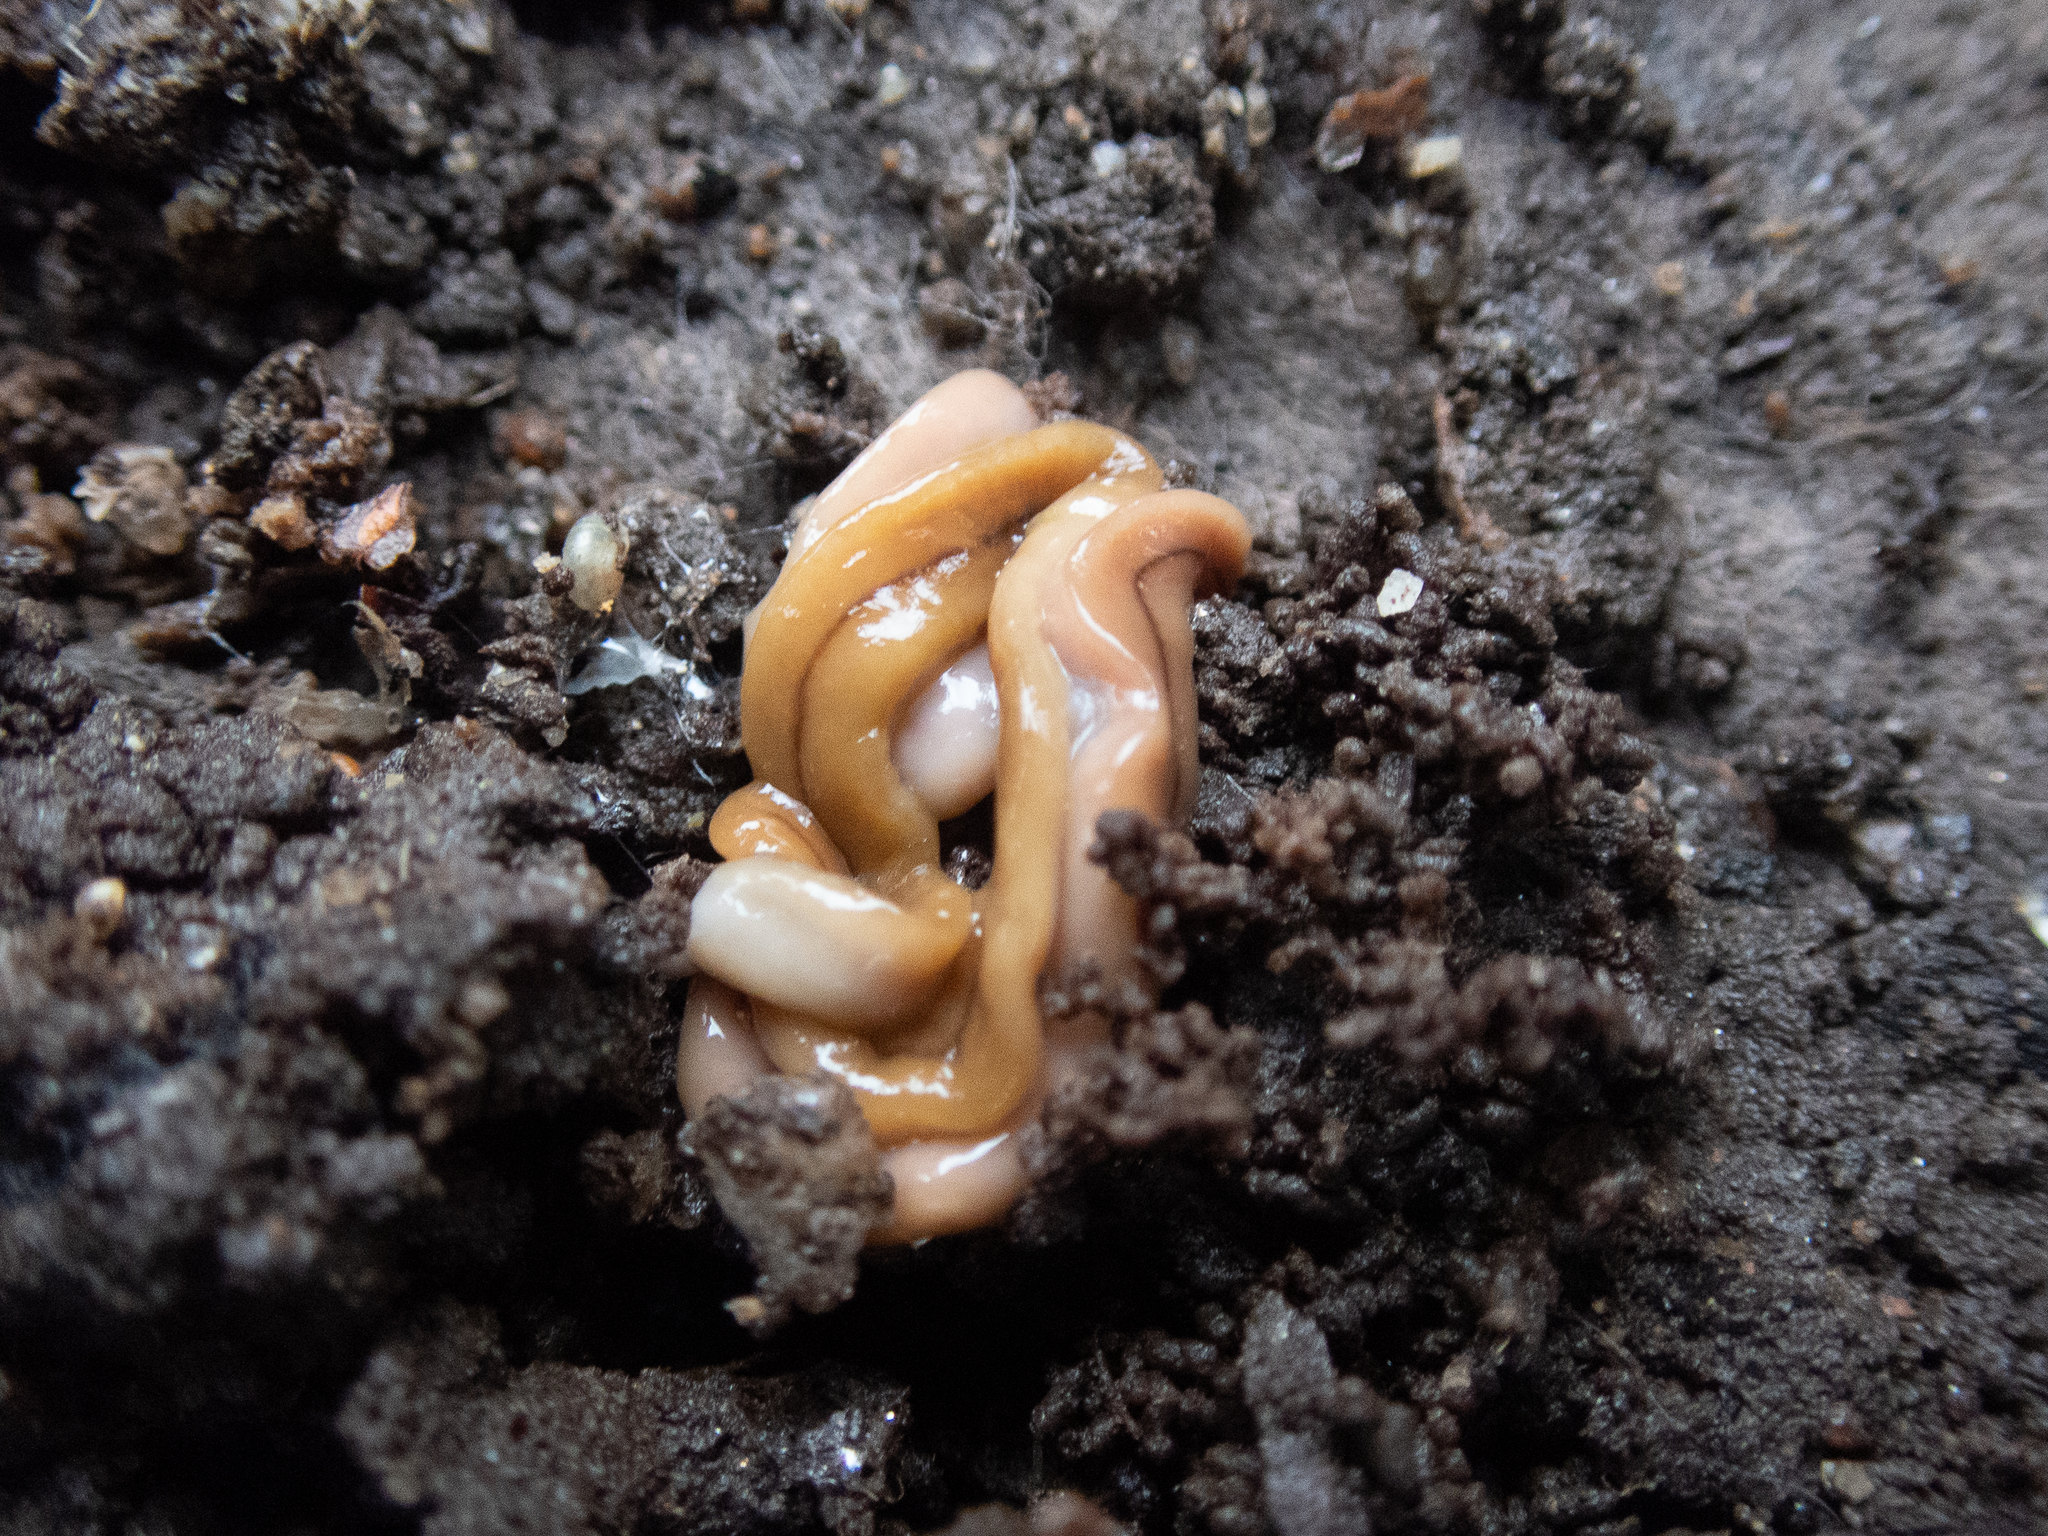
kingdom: Animalia
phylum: Platyhelminthes
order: Tricladida
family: Geoplanidae
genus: Bipalium
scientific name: Bipalium adventitium
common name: Land planarian
